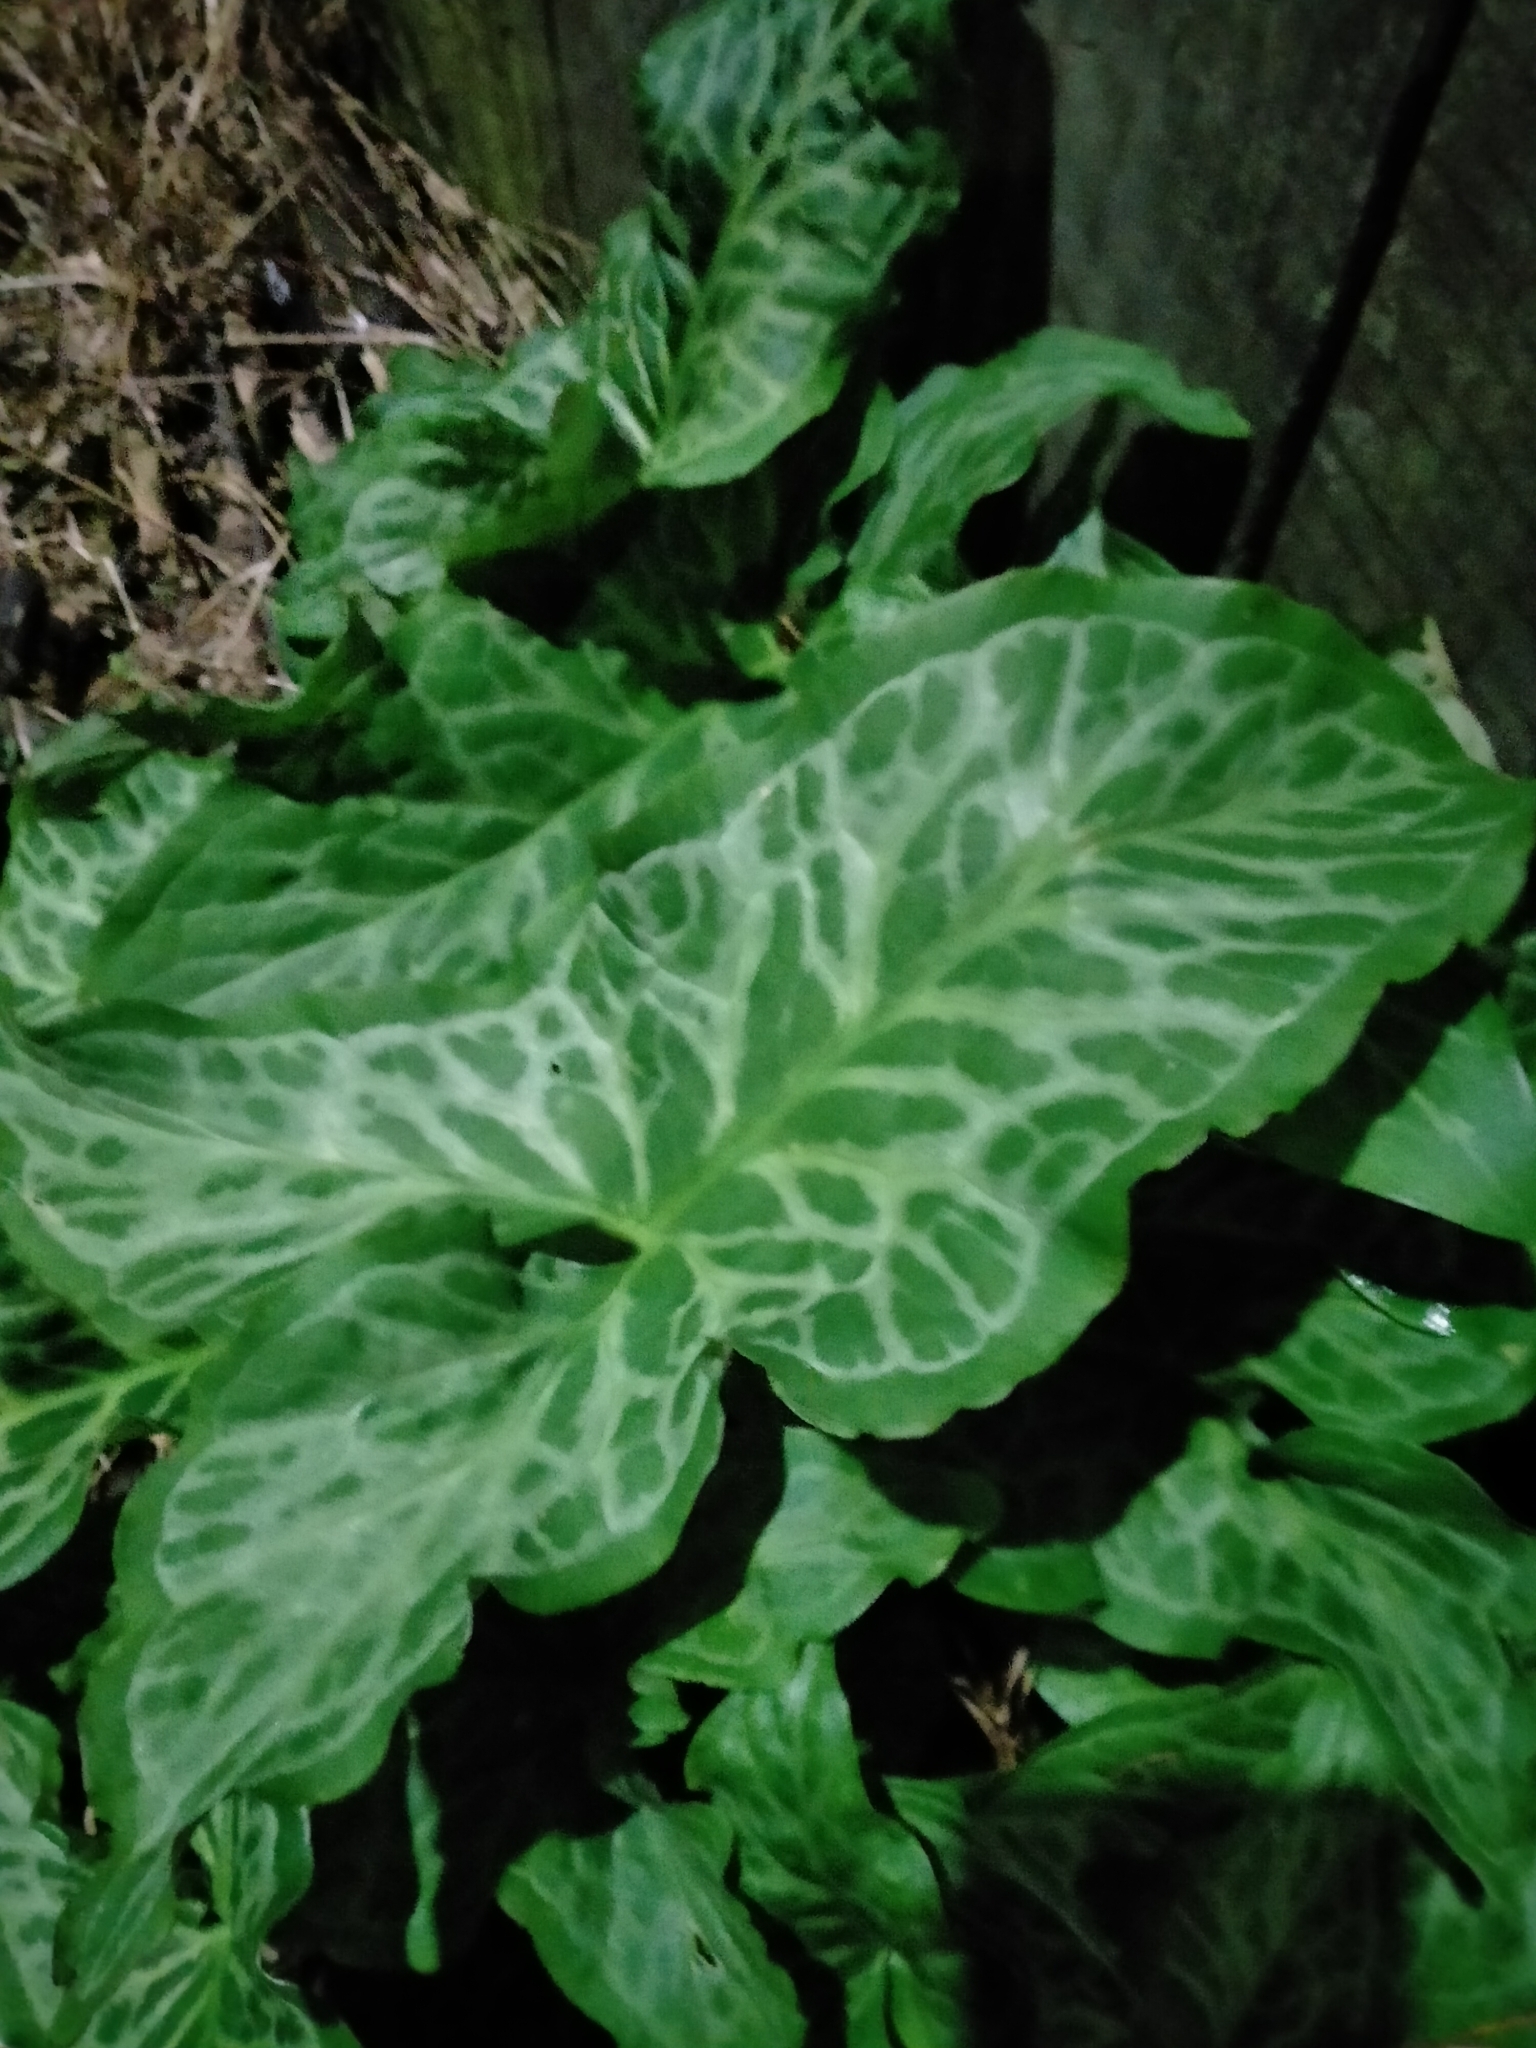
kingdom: Plantae
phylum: Tracheophyta
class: Liliopsida
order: Alismatales
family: Araceae
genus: Arum
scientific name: Arum italicum
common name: Italian lords-and-ladies
